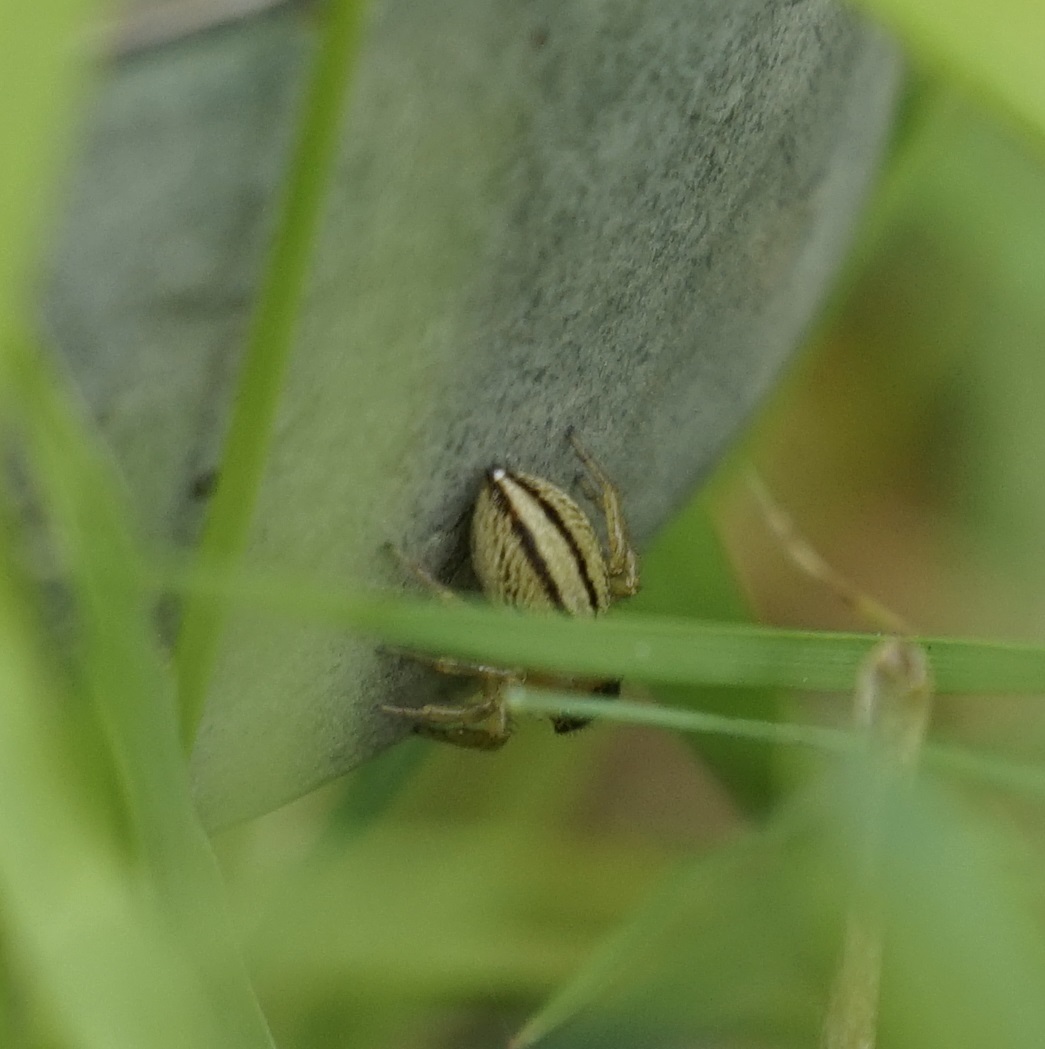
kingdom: Animalia
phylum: Arthropoda
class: Arachnida
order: Araneae
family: Salticidae
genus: Maratus
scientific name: Maratus scutulatus
